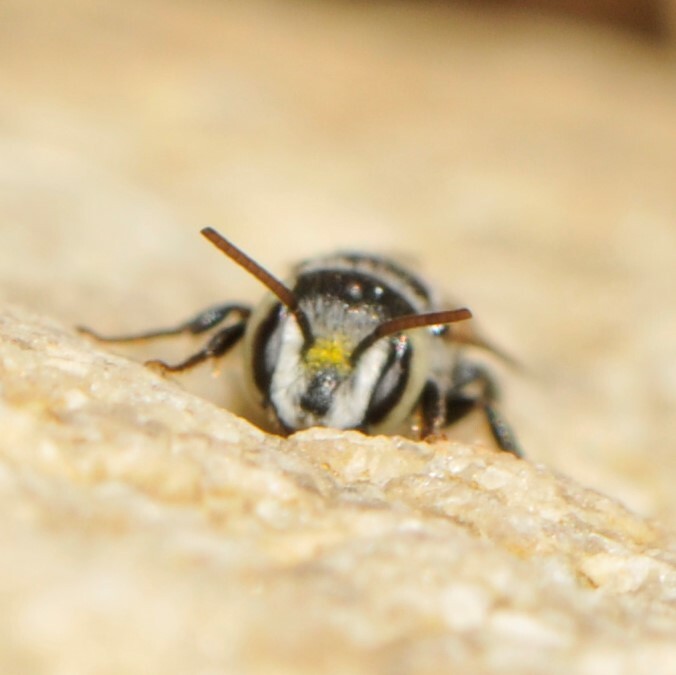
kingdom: Animalia
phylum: Arthropoda
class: Insecta
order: Hymenoptera
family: Megachilidae
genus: Ashmeadiella
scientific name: Ashmeadiella
